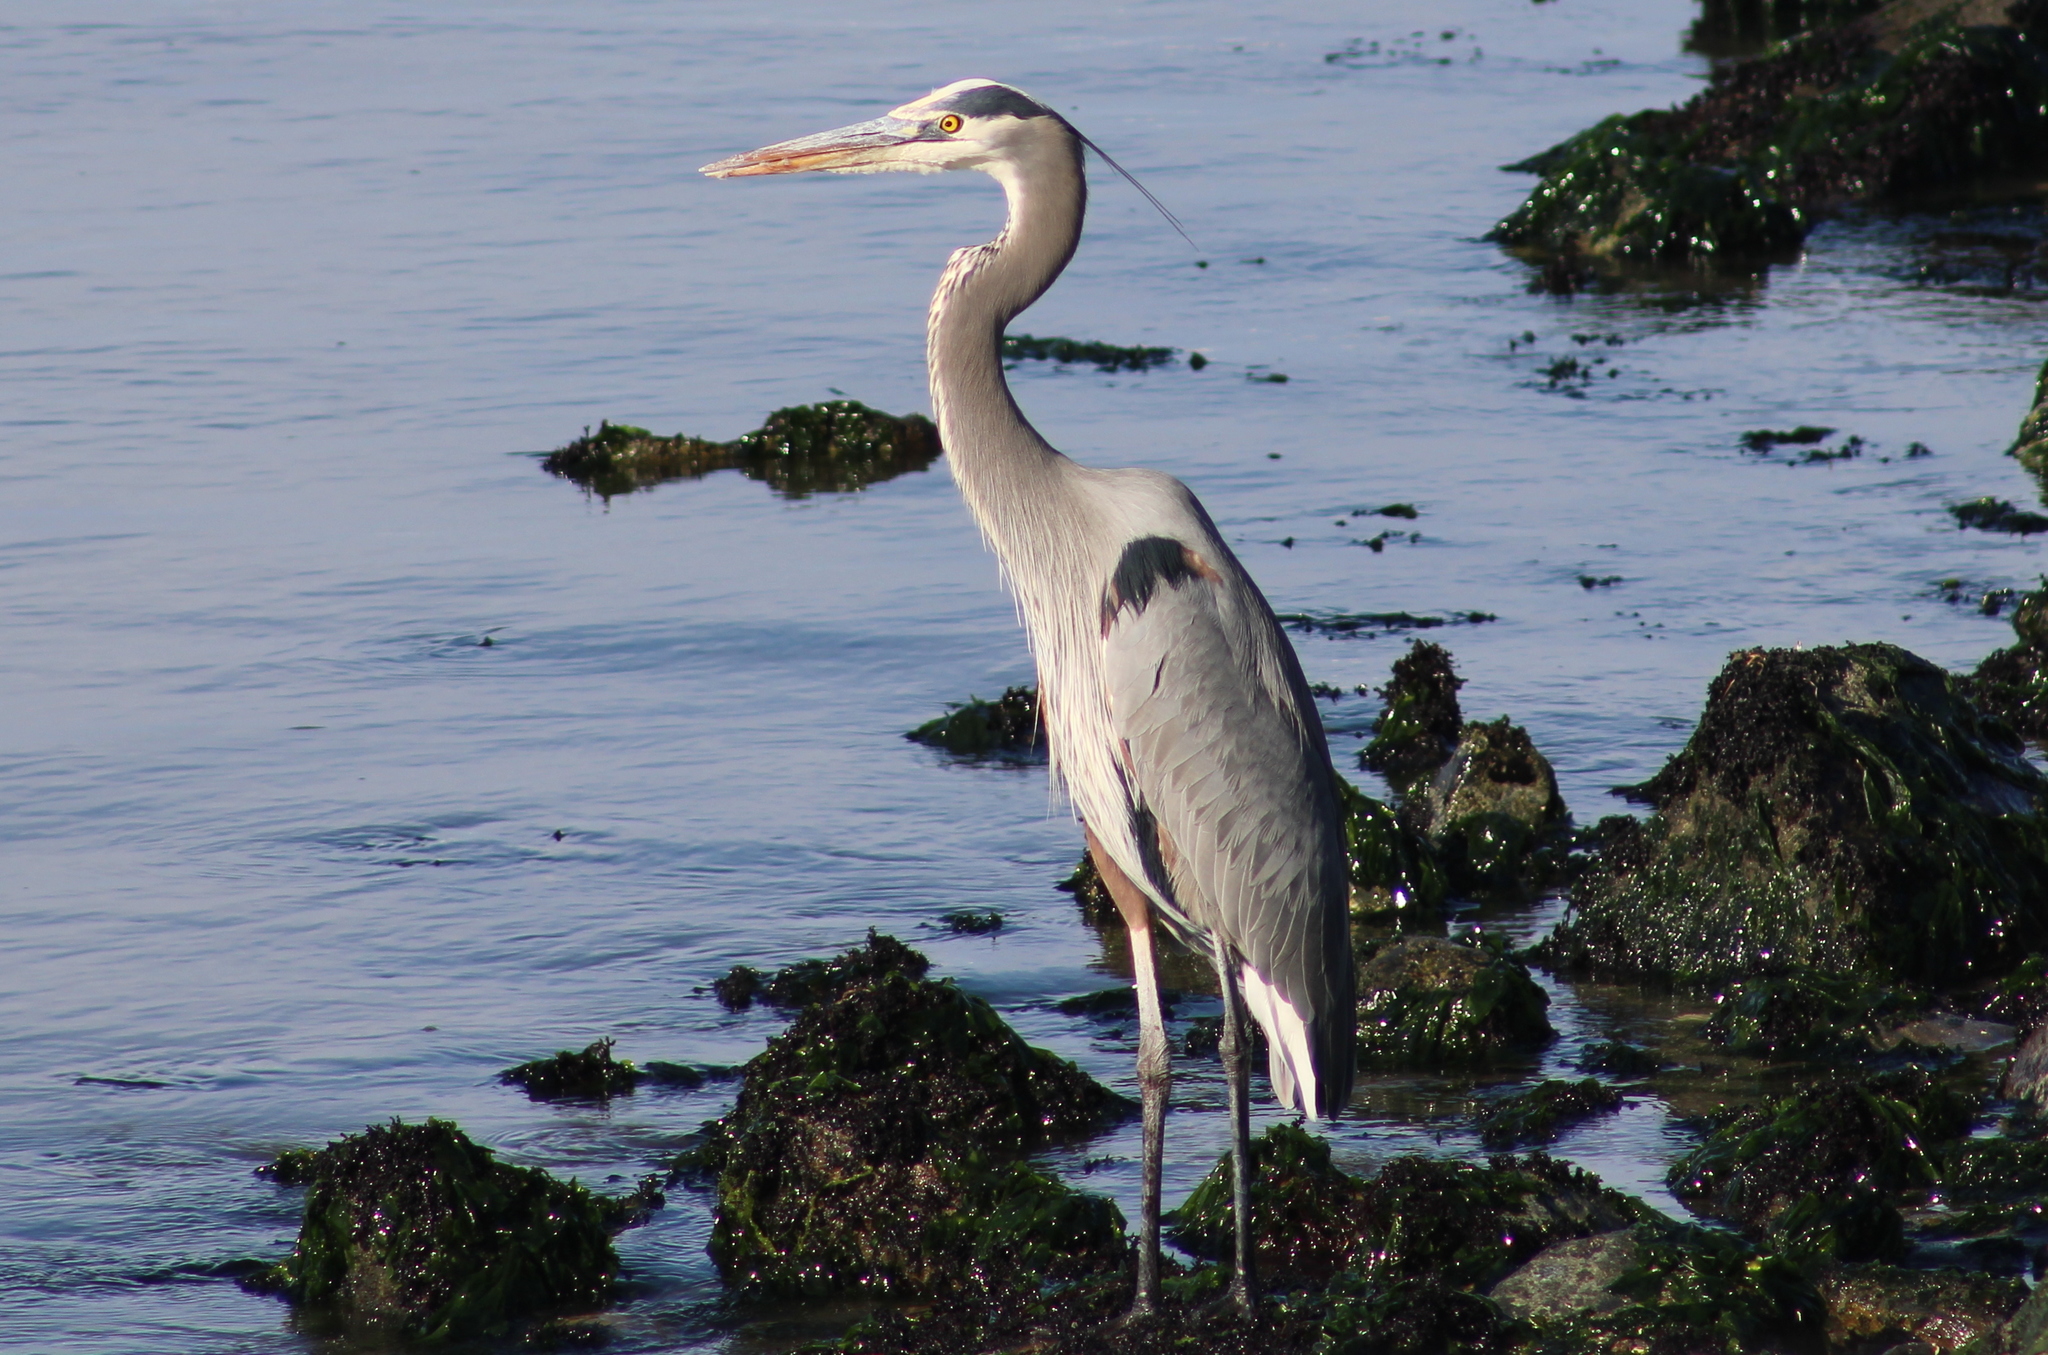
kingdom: Animalia
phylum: Chordata
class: Aves
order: Pelecaniformes
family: Ardeidae
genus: Ardea
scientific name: Ardea herodias
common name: Great blue heron
